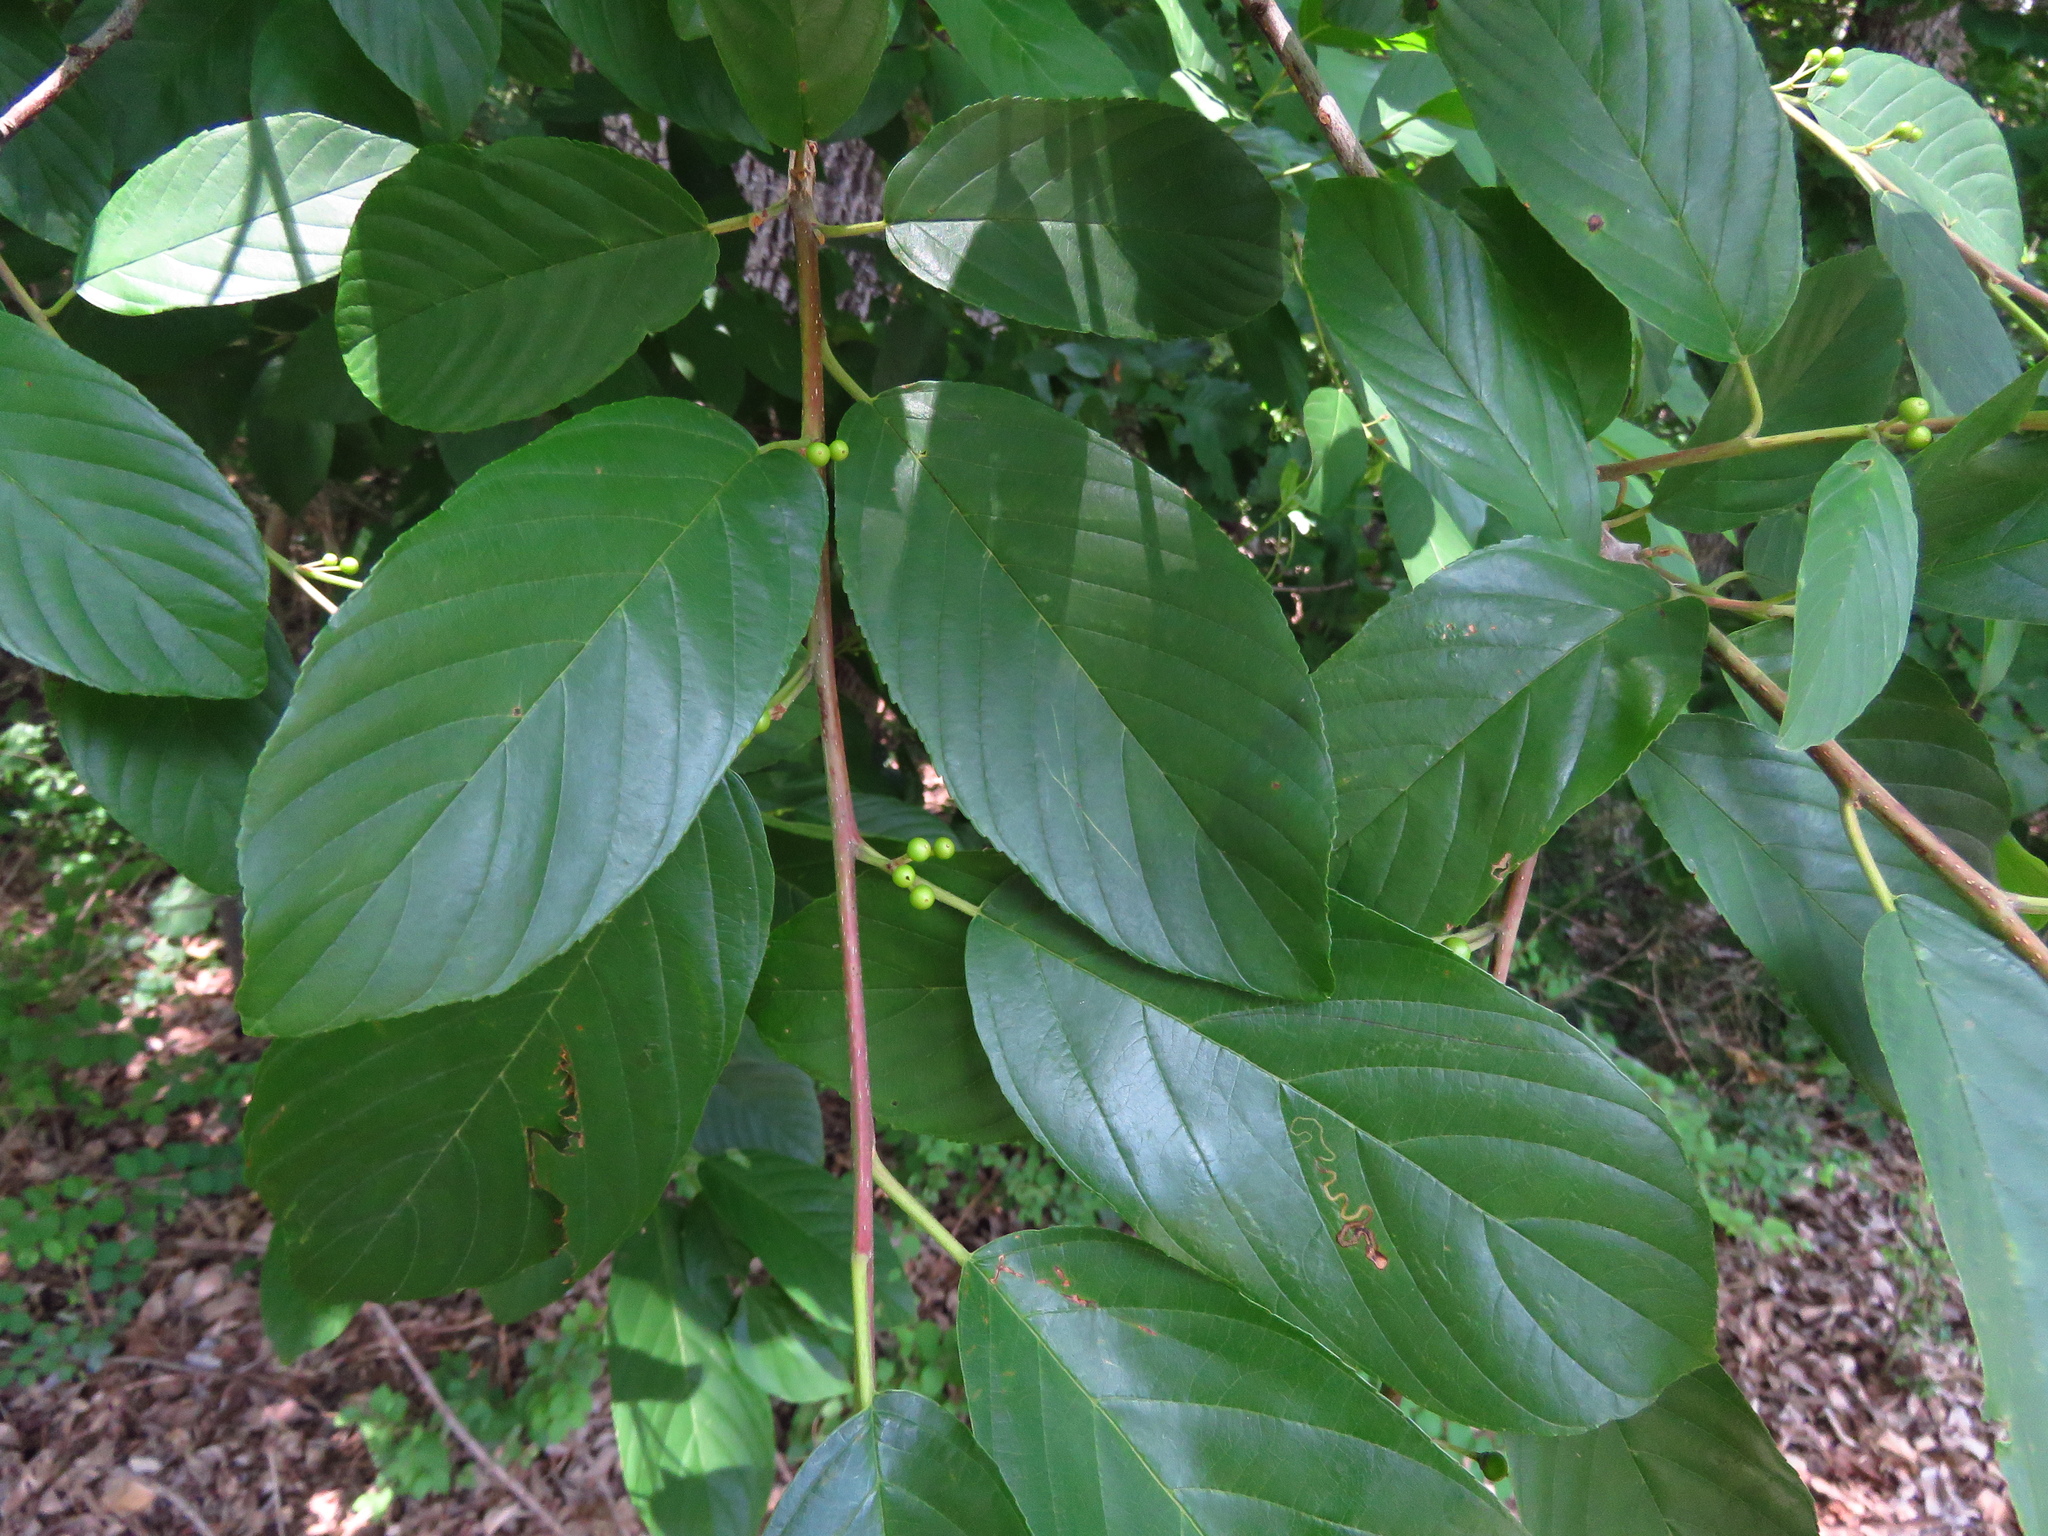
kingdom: Plantae
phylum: Tracheophyta
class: Magnoliopsida
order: Rosales
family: Rhamnaceae
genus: Frangula
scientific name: Frangula caroliniana
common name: Carolina buckthorn
